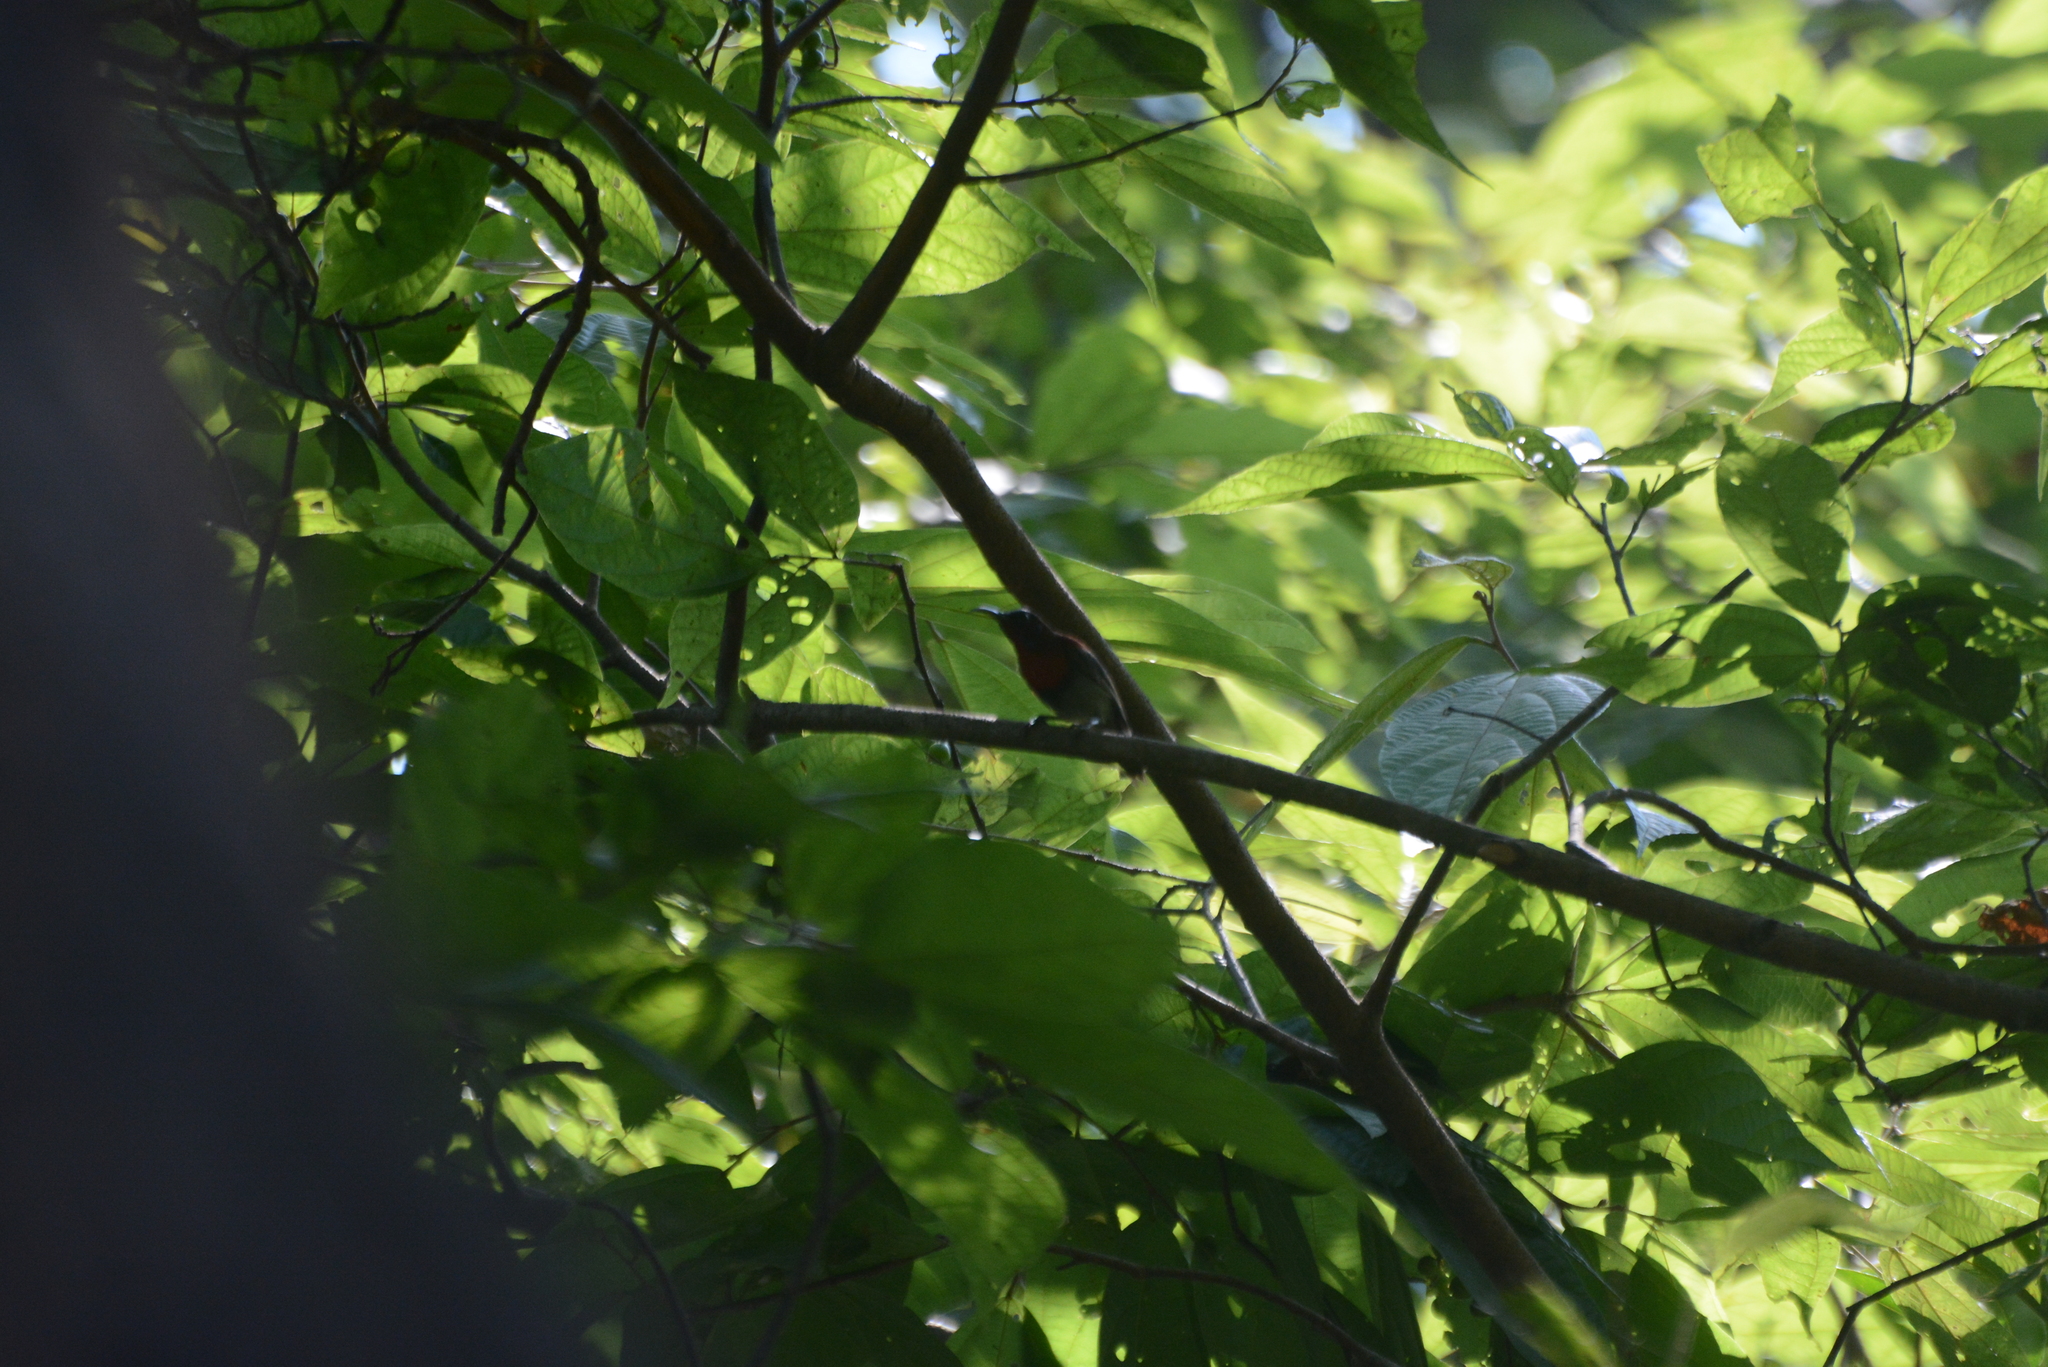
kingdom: Animalia
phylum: Chordata
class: Aves
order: Passeriformes
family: Nectariniidae
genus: Aethopyga
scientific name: Aethopyga vigorsii
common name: Vigors's sunbird
